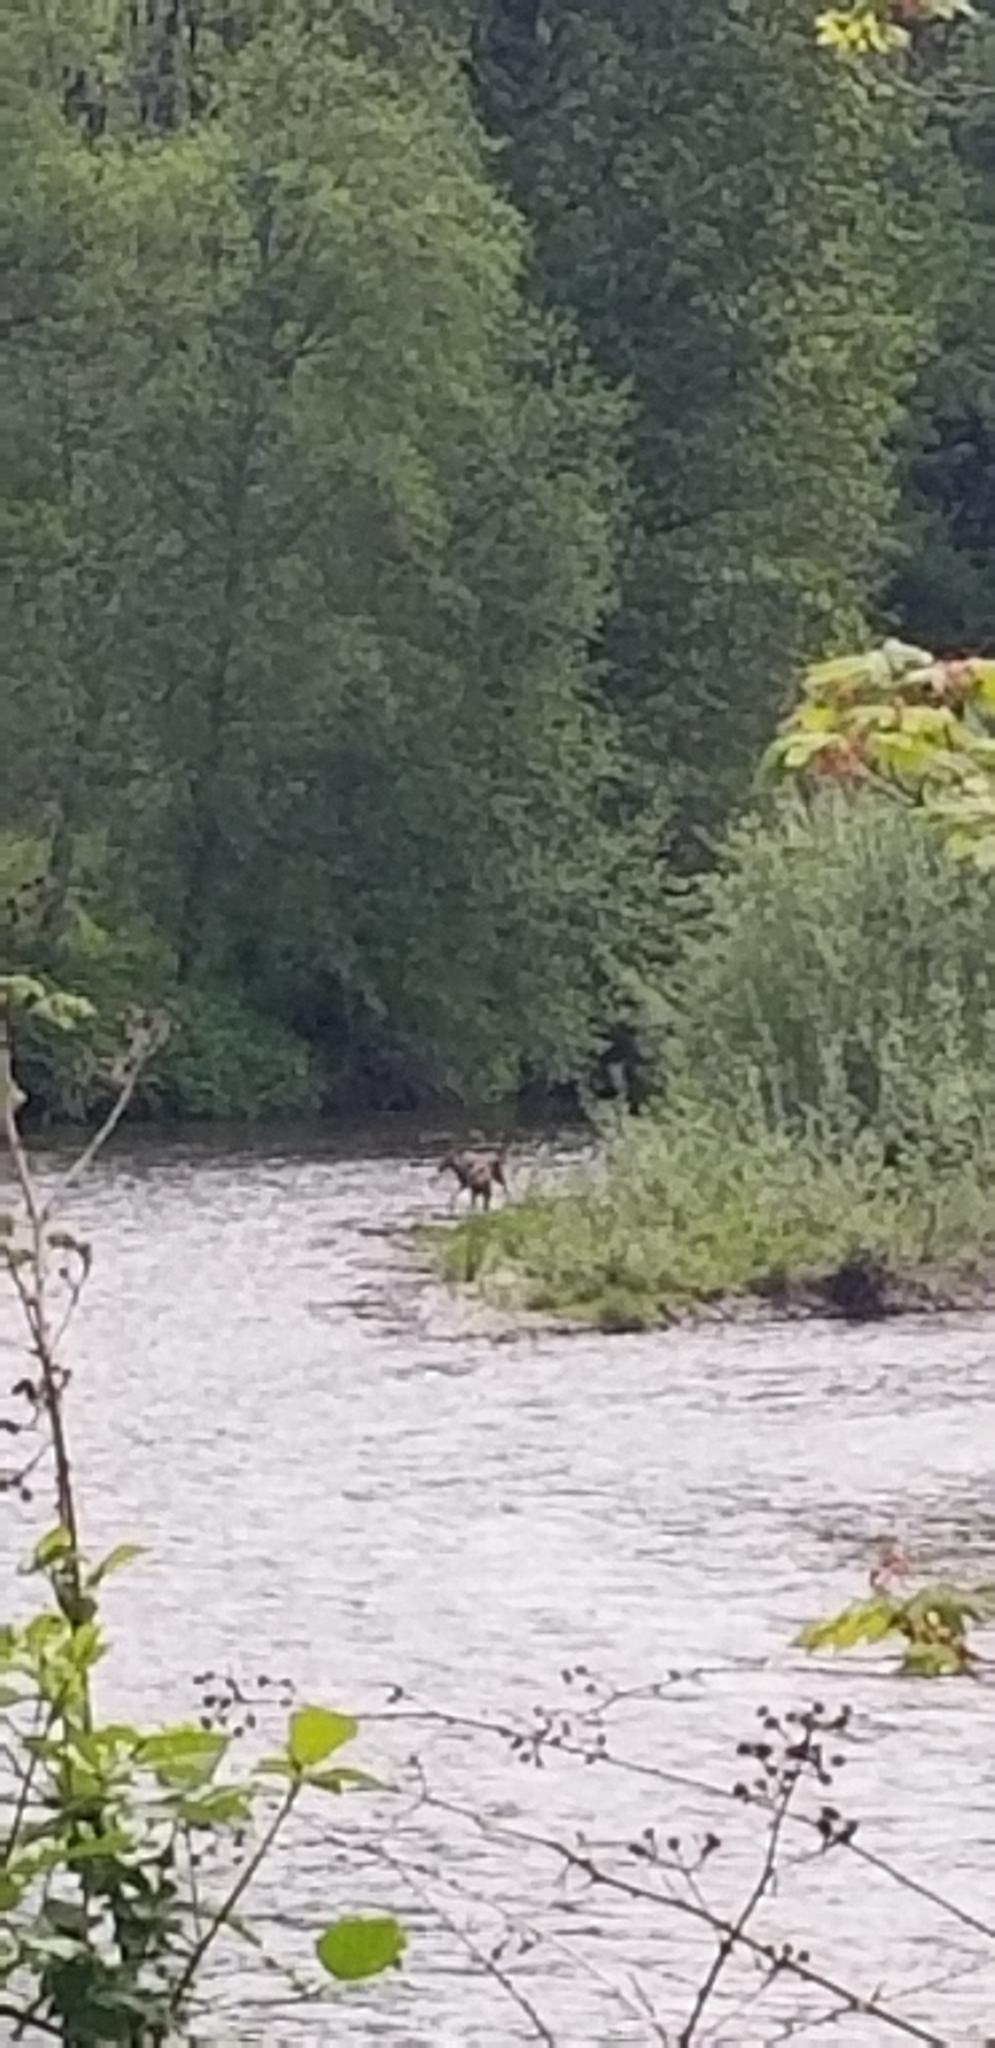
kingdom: Animalia
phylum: Chordata
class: Mammalia
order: Artiodactyla
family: Cervidae
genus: Odocoileus
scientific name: Odocoileus hemionus
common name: Mule deer
